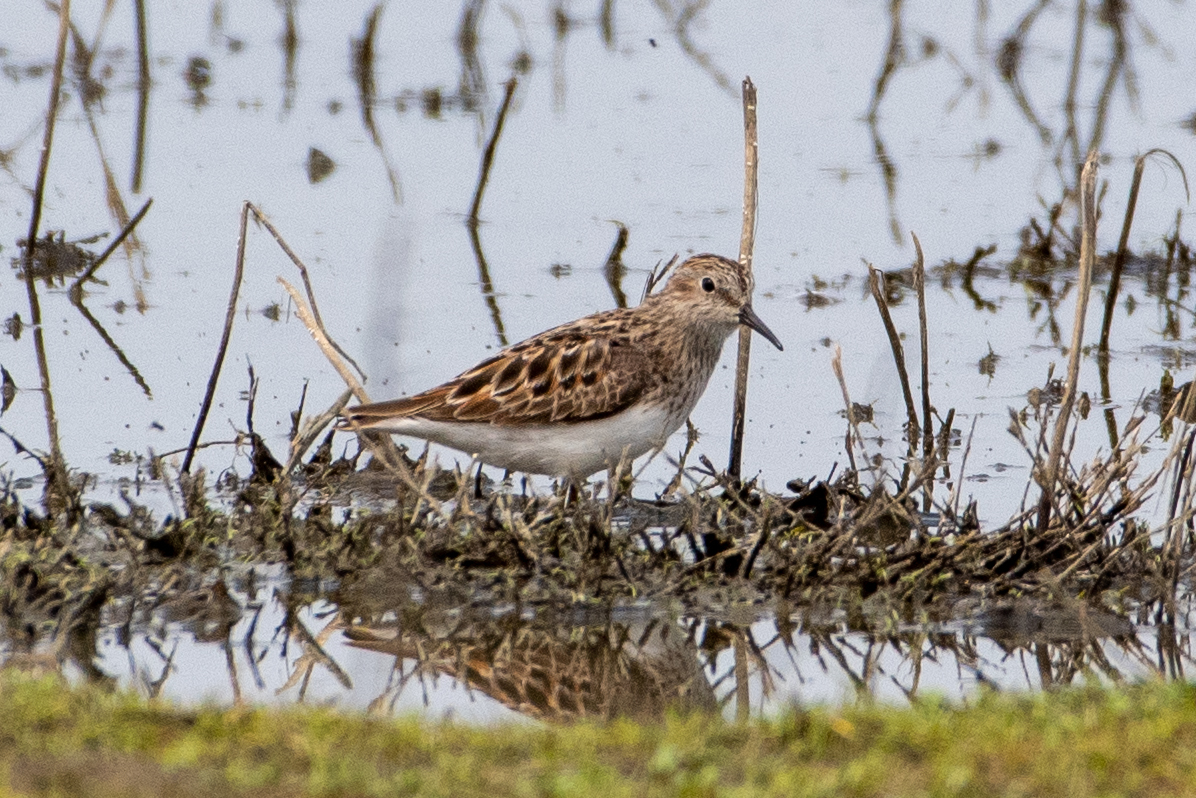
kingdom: Animalia
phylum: Chordata
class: Aves
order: Charadriiformes
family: Scolopacidae
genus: Calidris
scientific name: Calidris minutilla
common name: Least sandpiper
